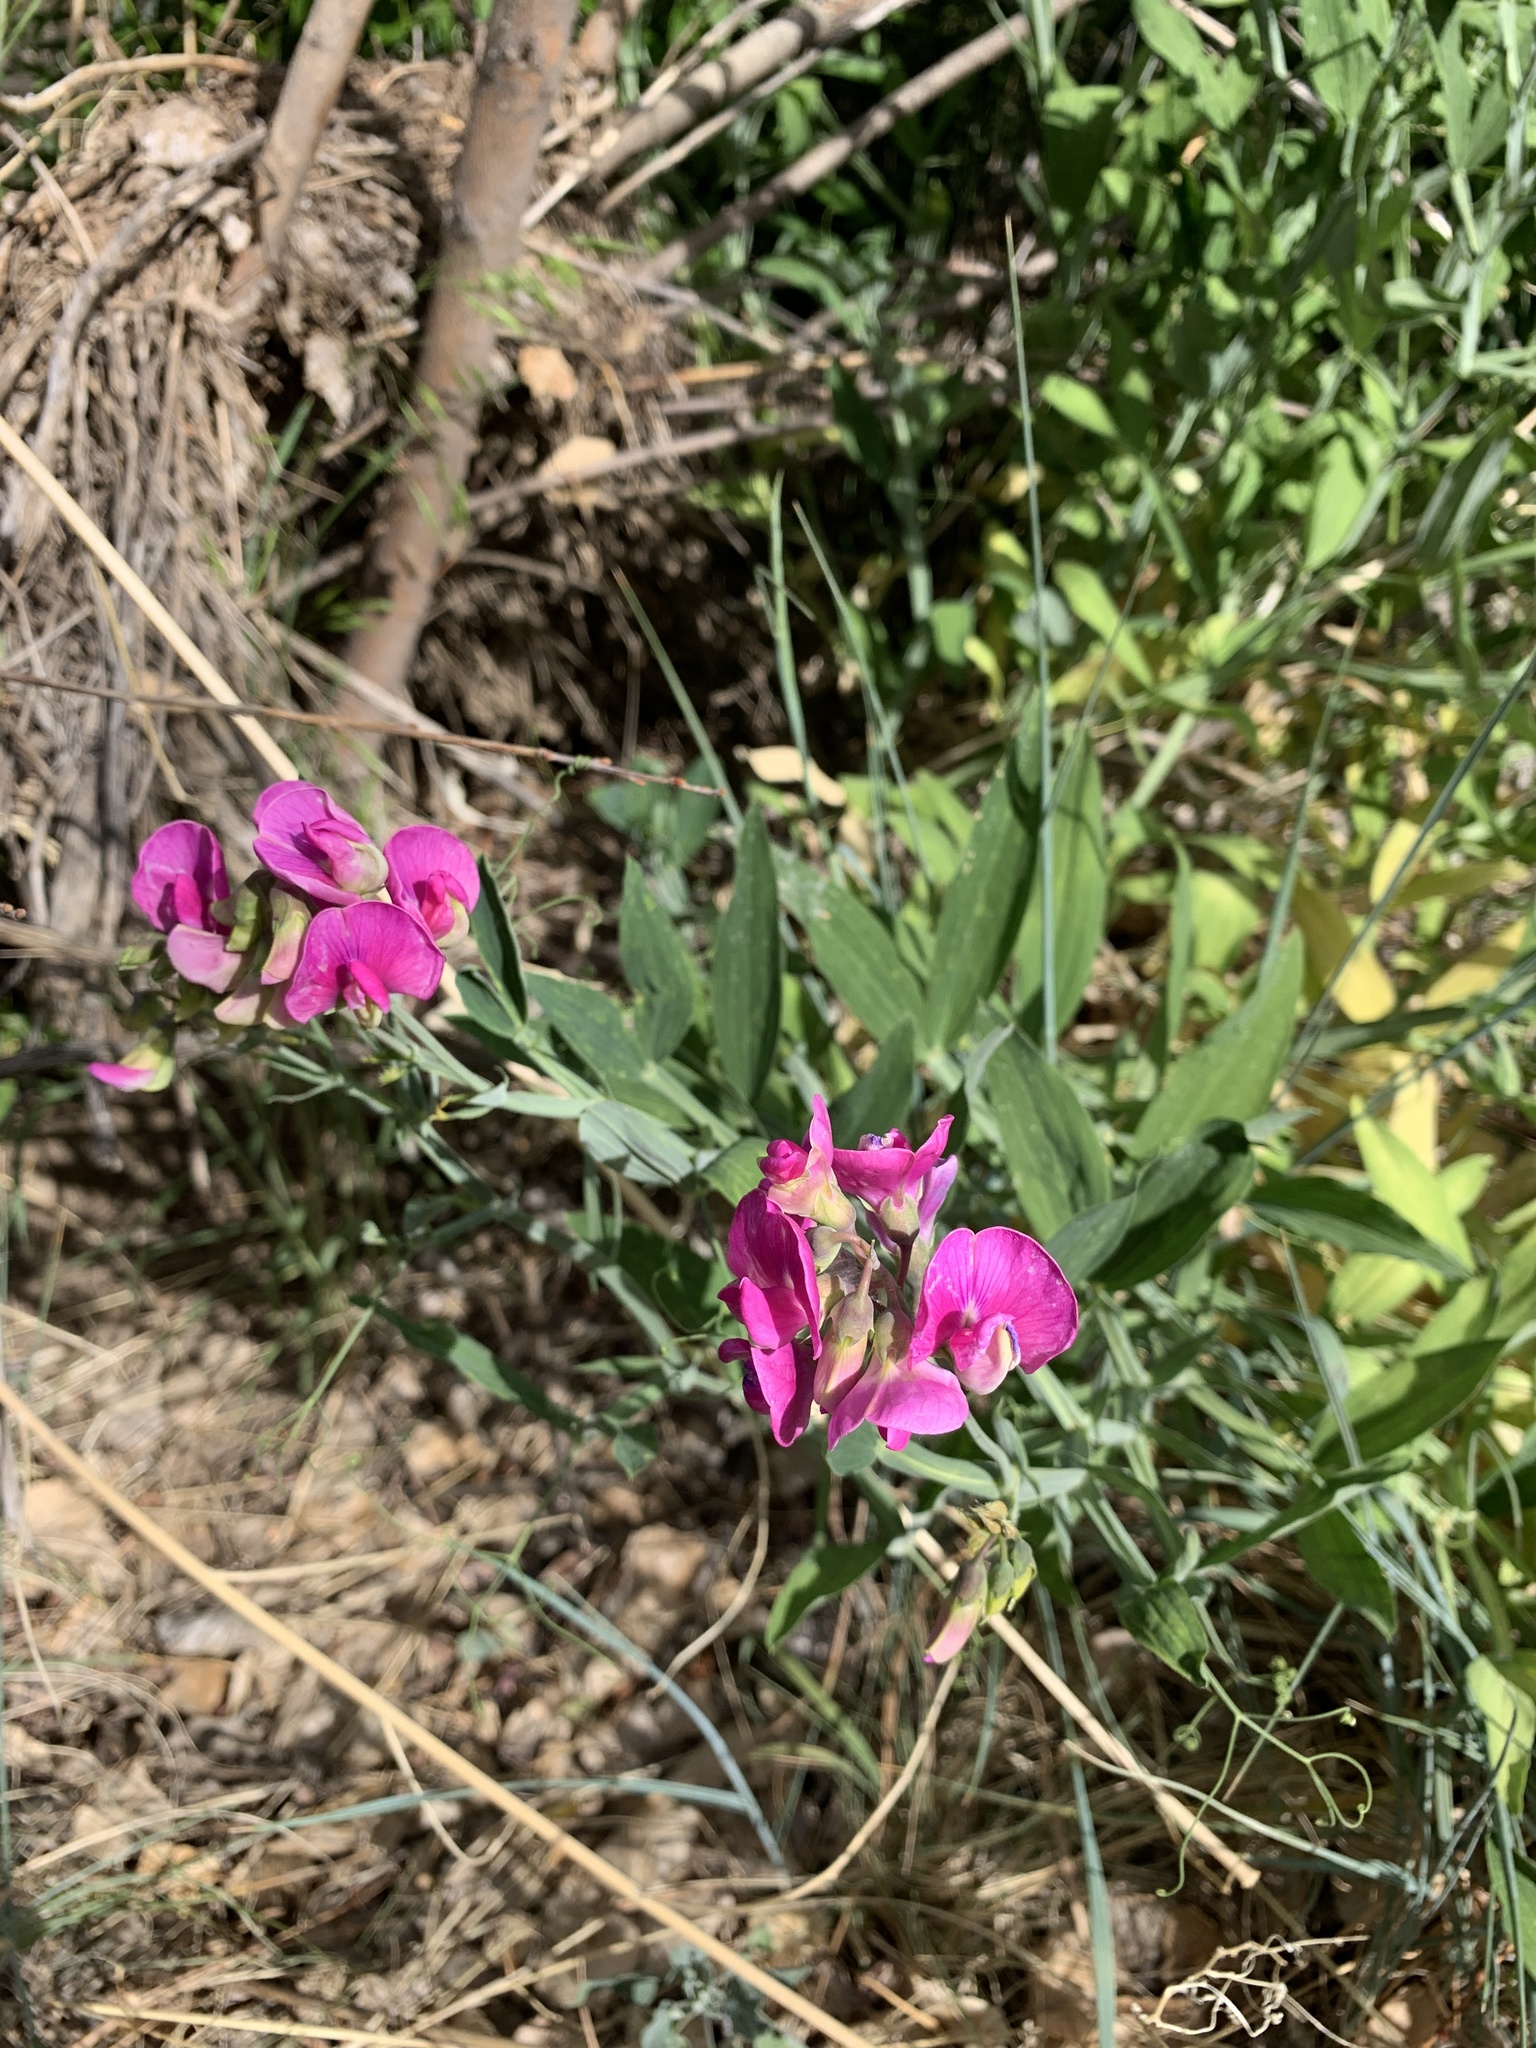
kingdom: Plantae
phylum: Tracheophyta
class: Magnoliopsida
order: Fabales
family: Fabaceae
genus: Lathyrus
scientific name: Lathyrus latifolius
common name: Perennial pea
